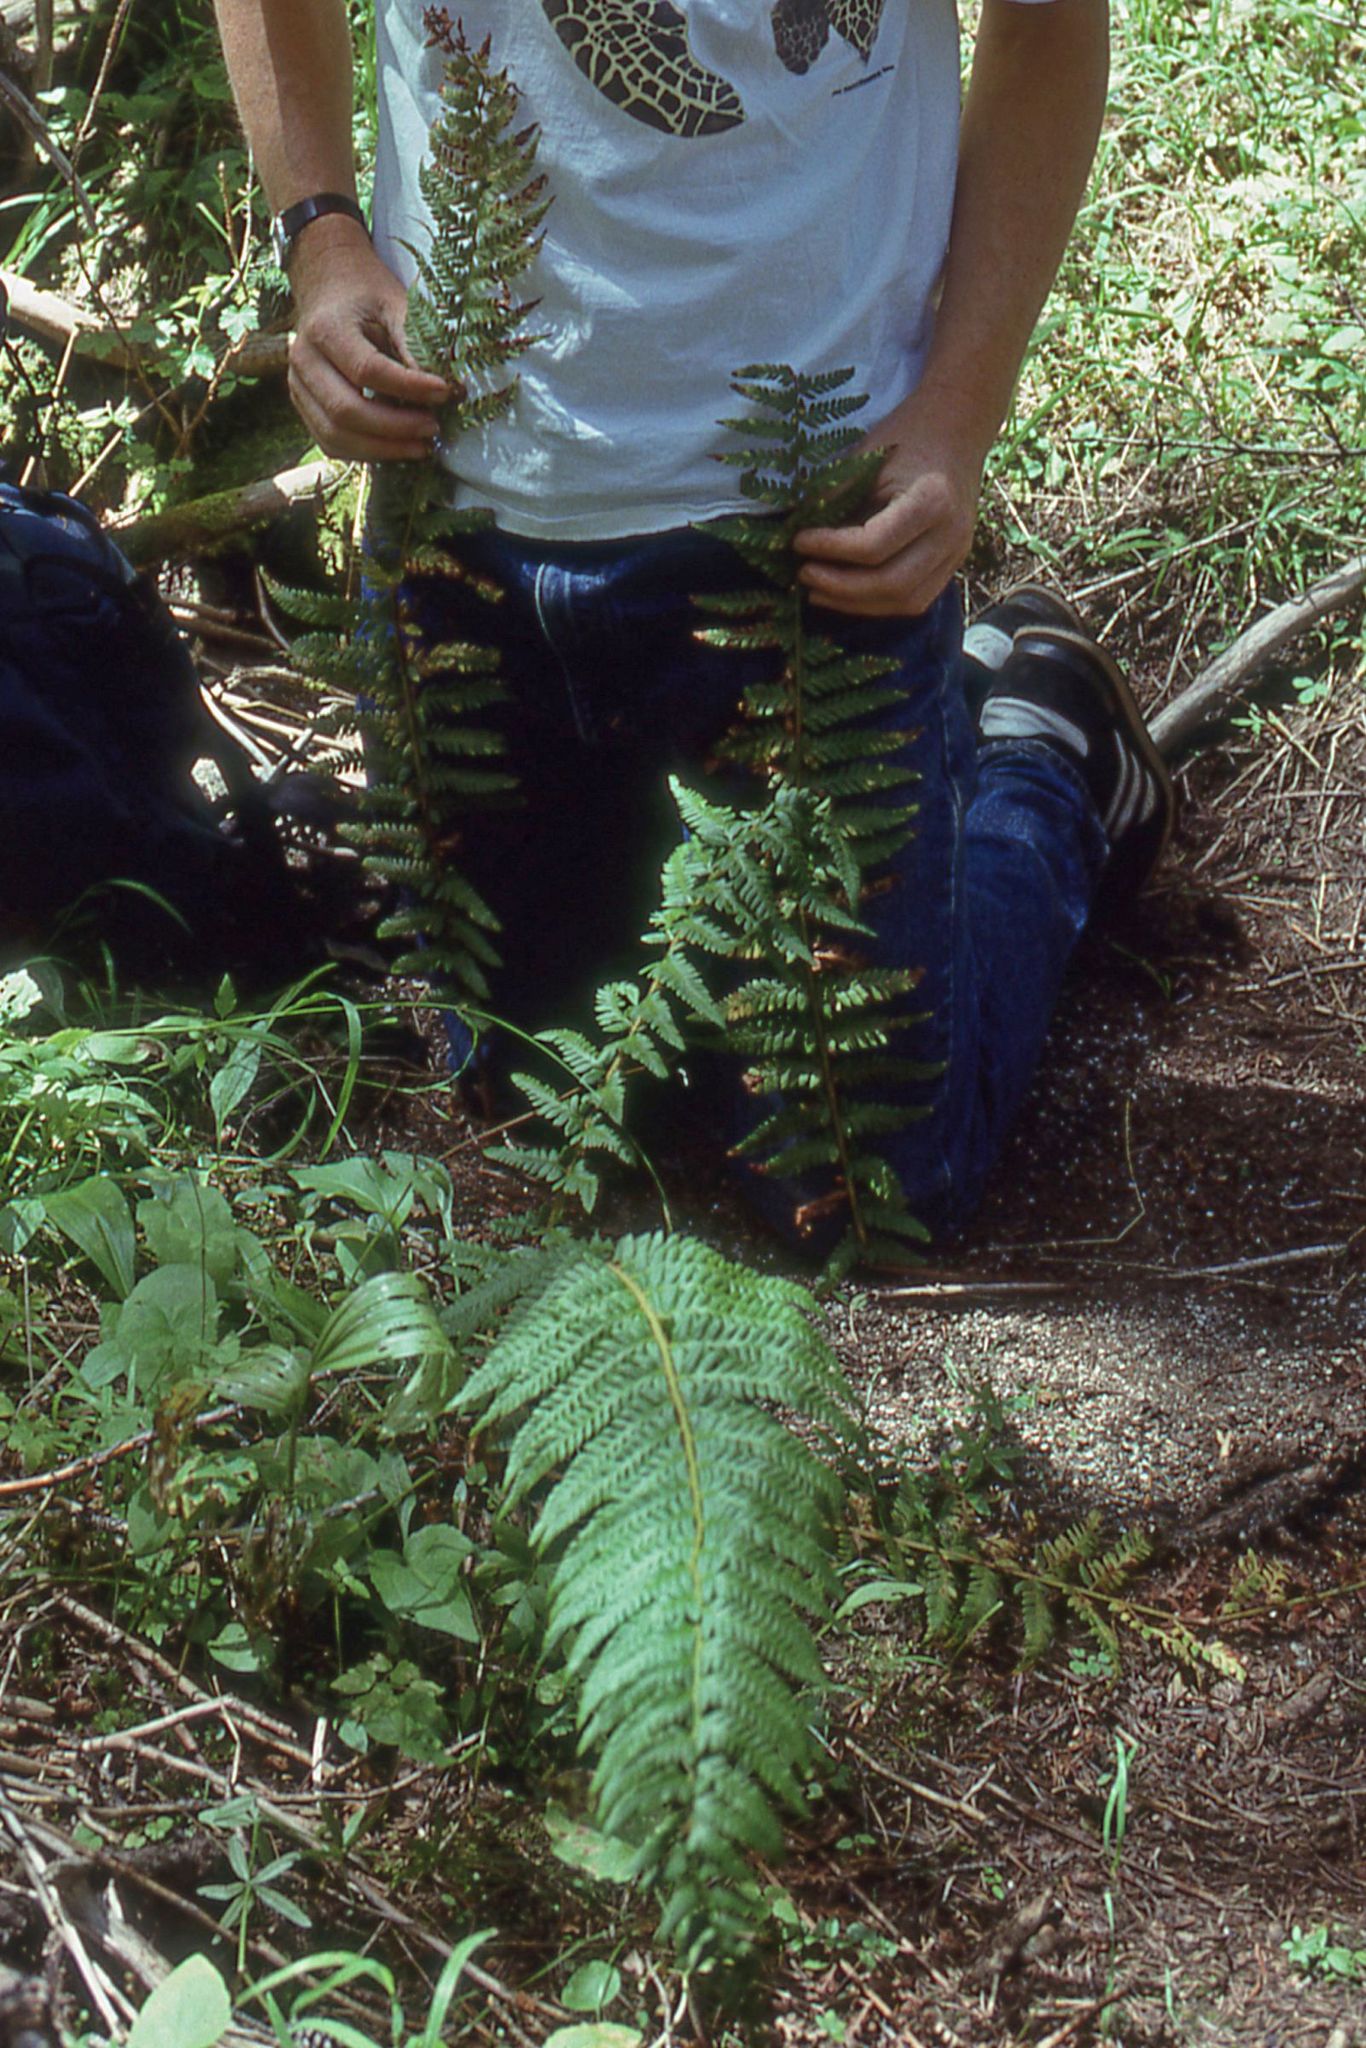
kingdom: Plantae
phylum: Tracheophyta
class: Polypodiopsida
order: Polypodiales
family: Dryopteridaceae
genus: Polystichum
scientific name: Polystichum andersonii
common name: Anderson's holly fern
